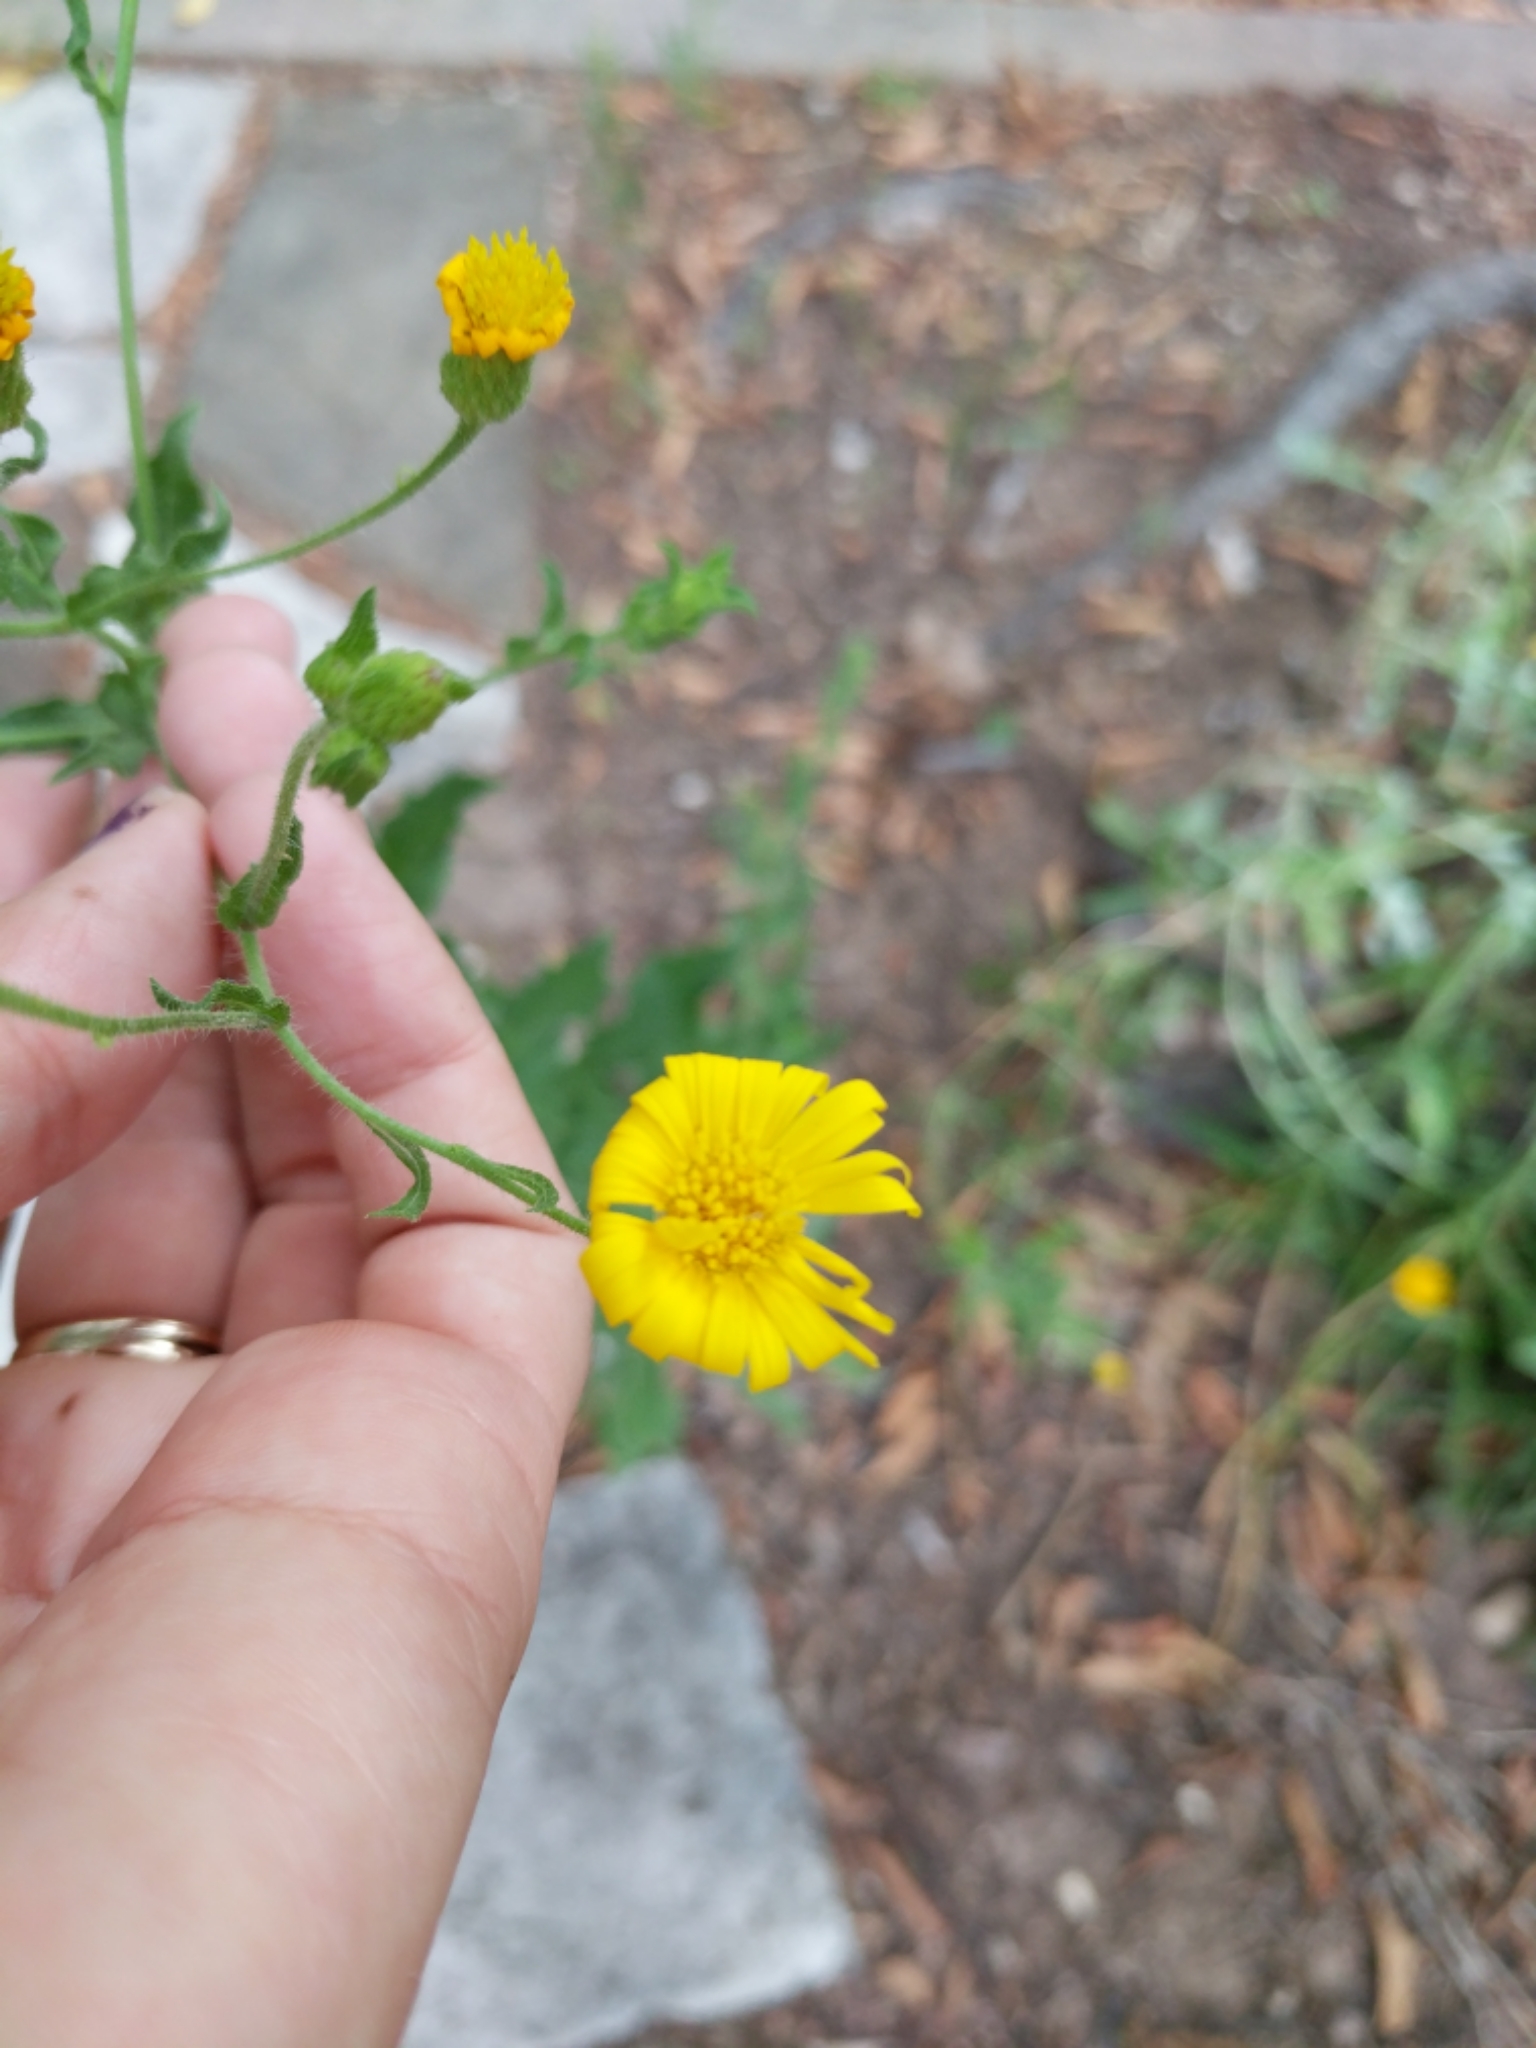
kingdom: Plantae
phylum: Tracheophyta
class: Magnoliopsida
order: Asterales
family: Asteraceae
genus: Heterotheca
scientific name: Heterotheca subaxillaris
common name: Camphorweed
